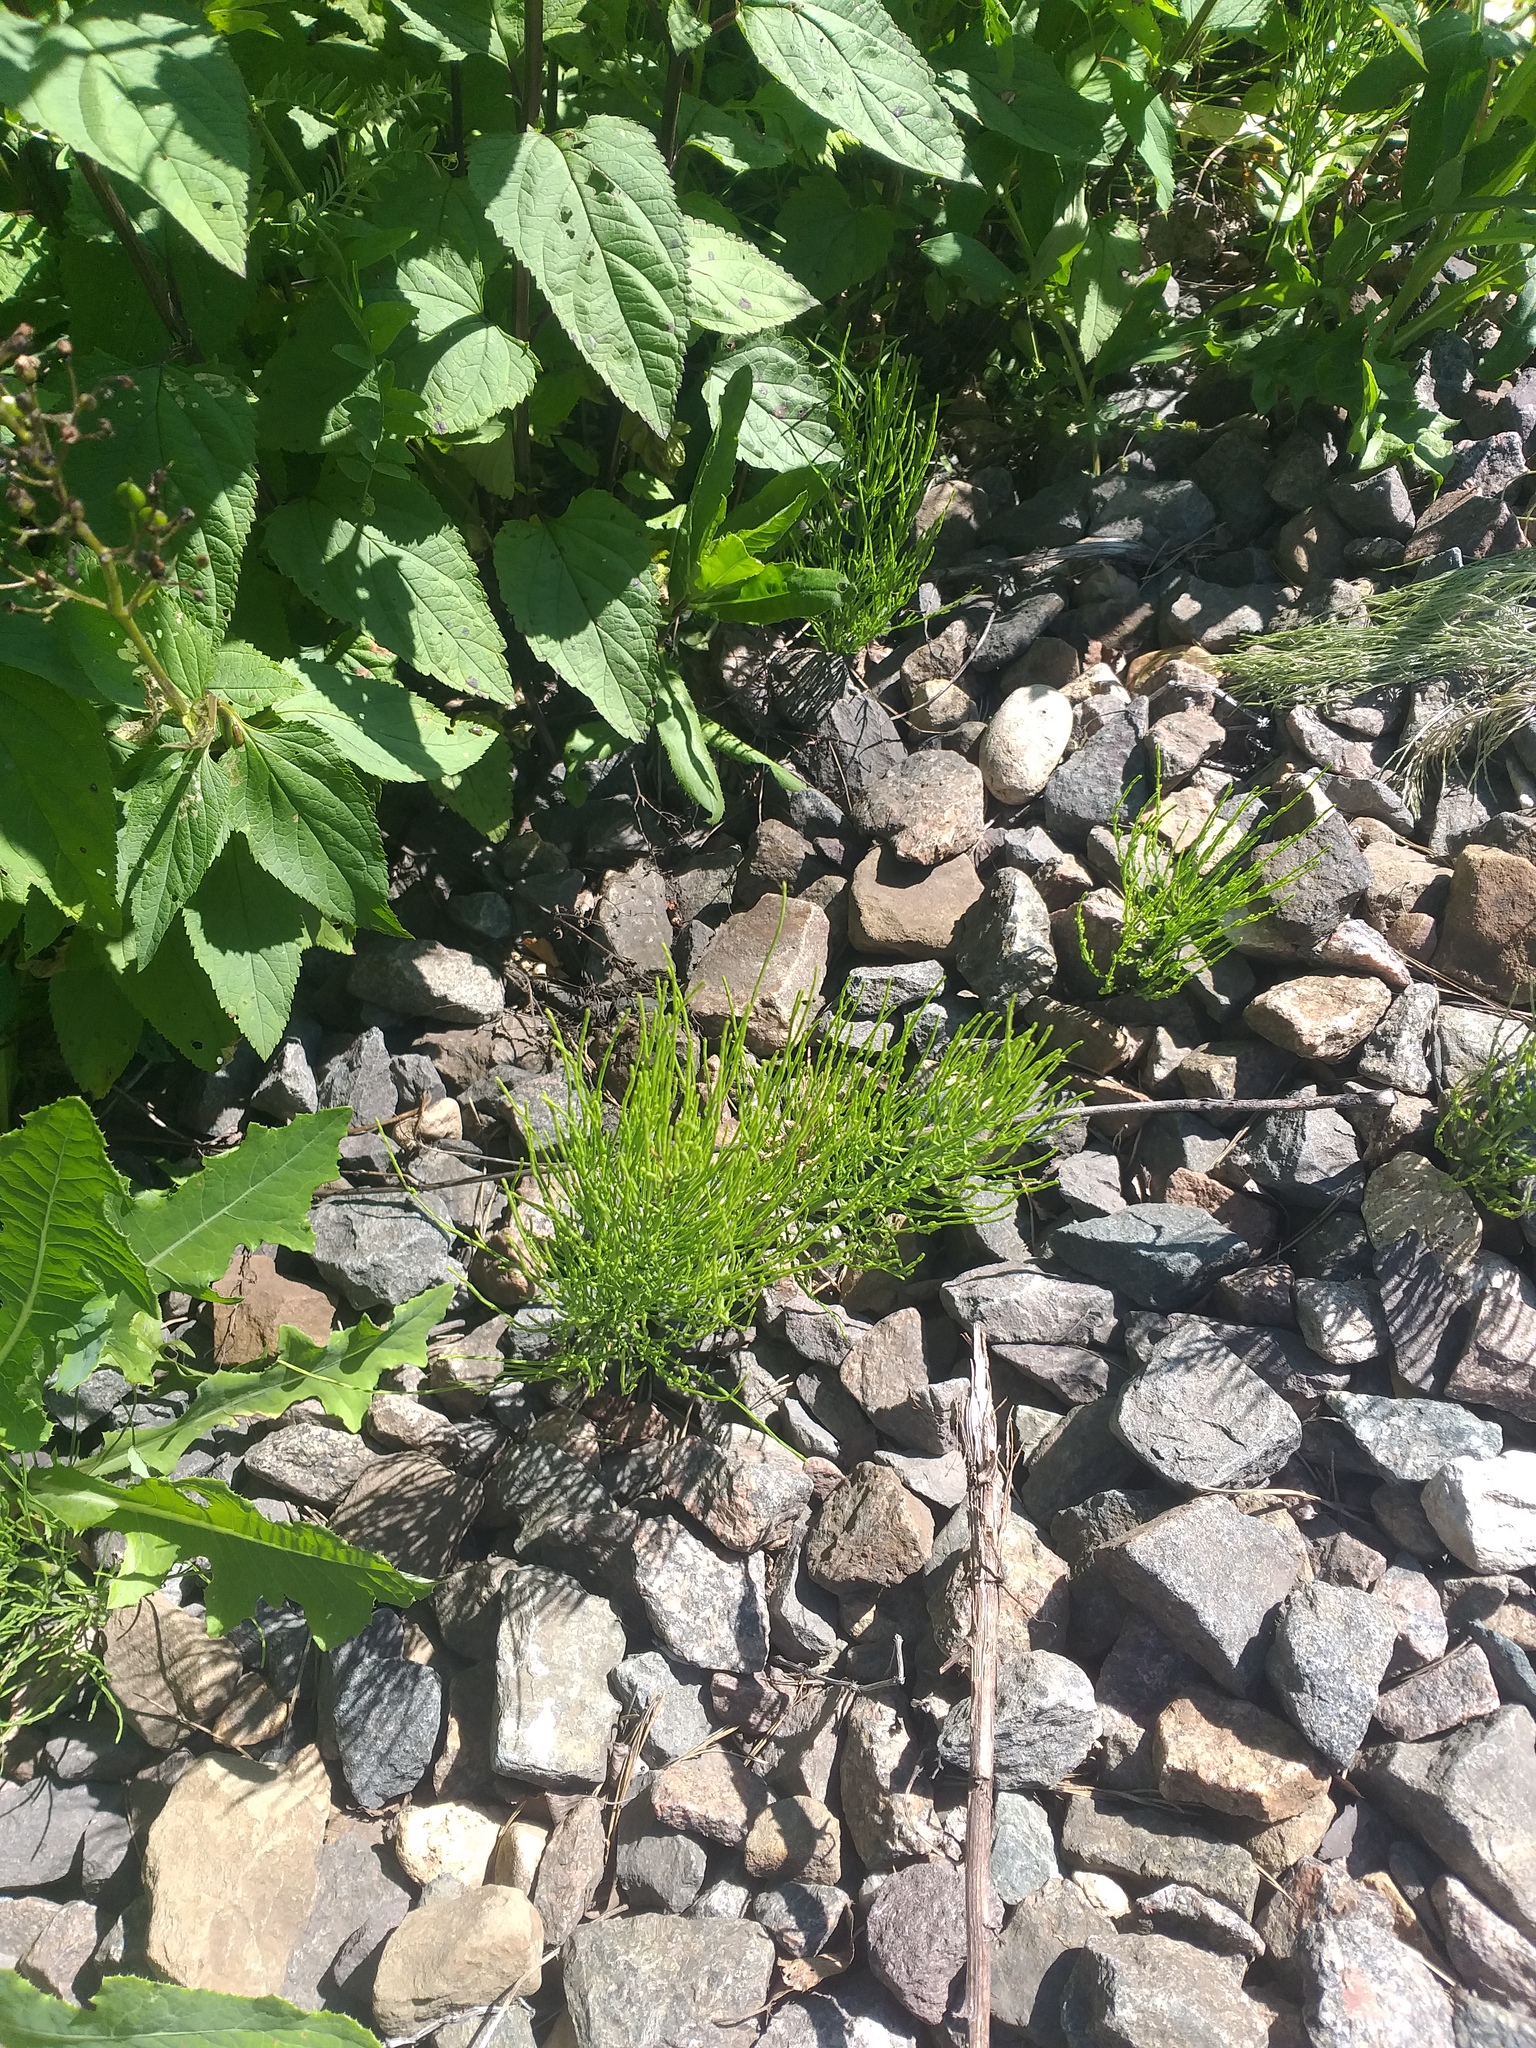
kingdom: Plantae
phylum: Tracheophyta
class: Polypodiopsida
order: Equisetales
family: Equisetaceae
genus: Equisetum
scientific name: Equisetum arvense
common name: Field horsetail
